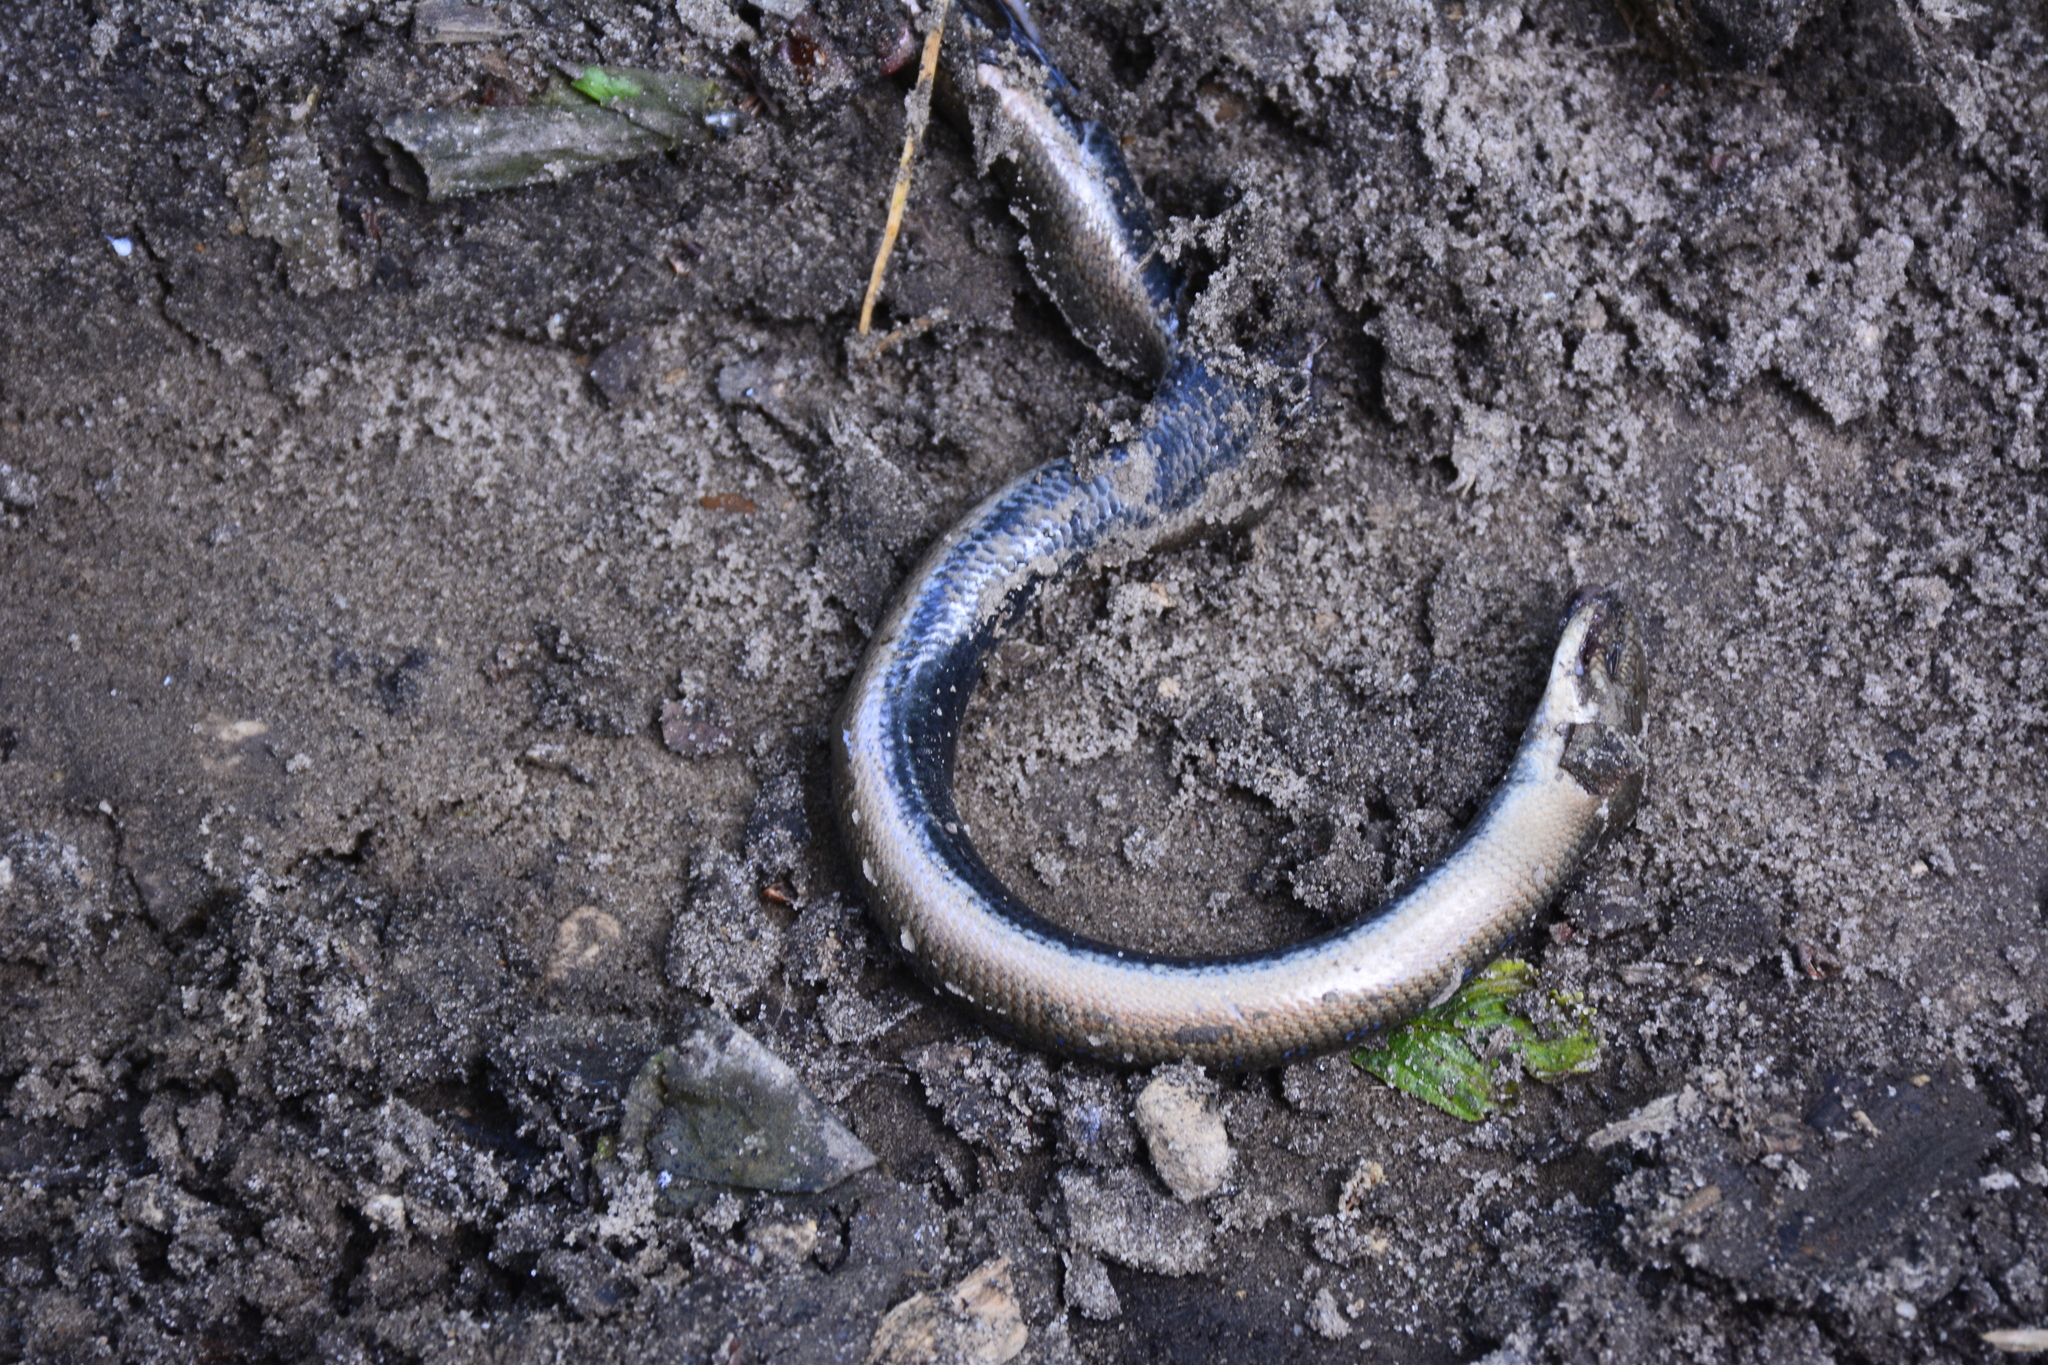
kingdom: Animalia
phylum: Chordata
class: Squamata
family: Anguidae
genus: Anguis
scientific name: Anguis colchica
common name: Slow worm
